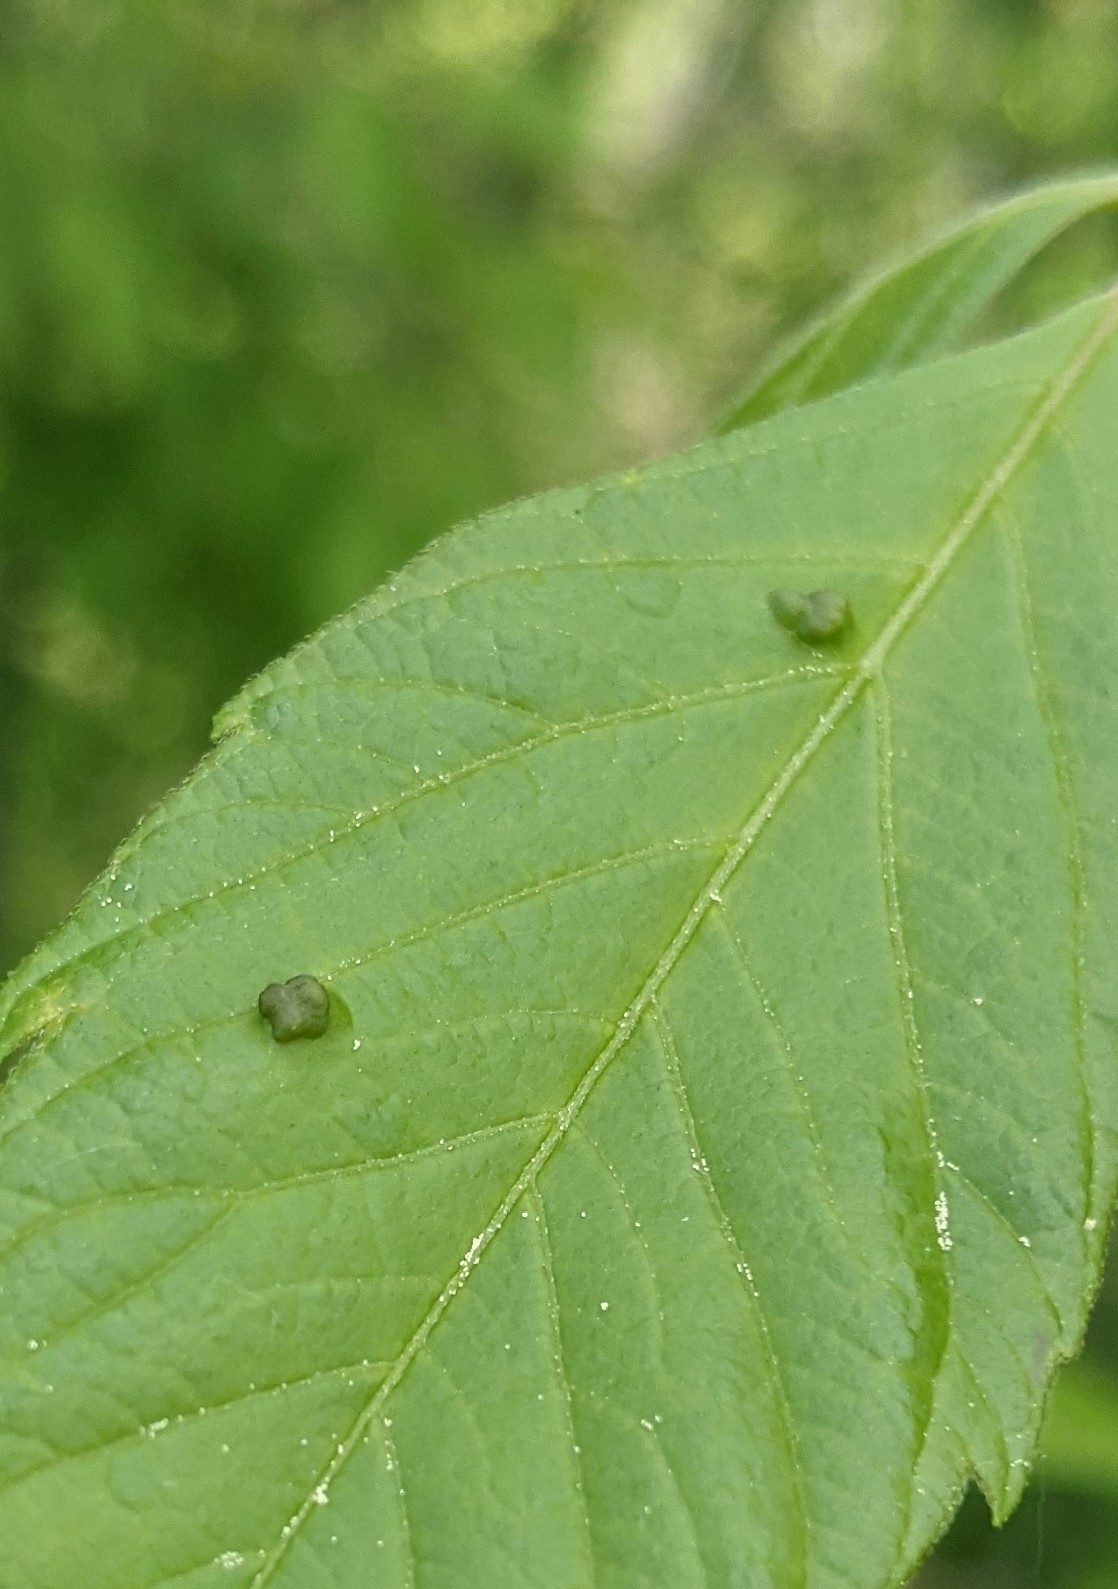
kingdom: Animalia
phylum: Arthropoda
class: Arachnida
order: Trombidiformes
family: Eriophyidae
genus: Aceria
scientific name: Aceria
